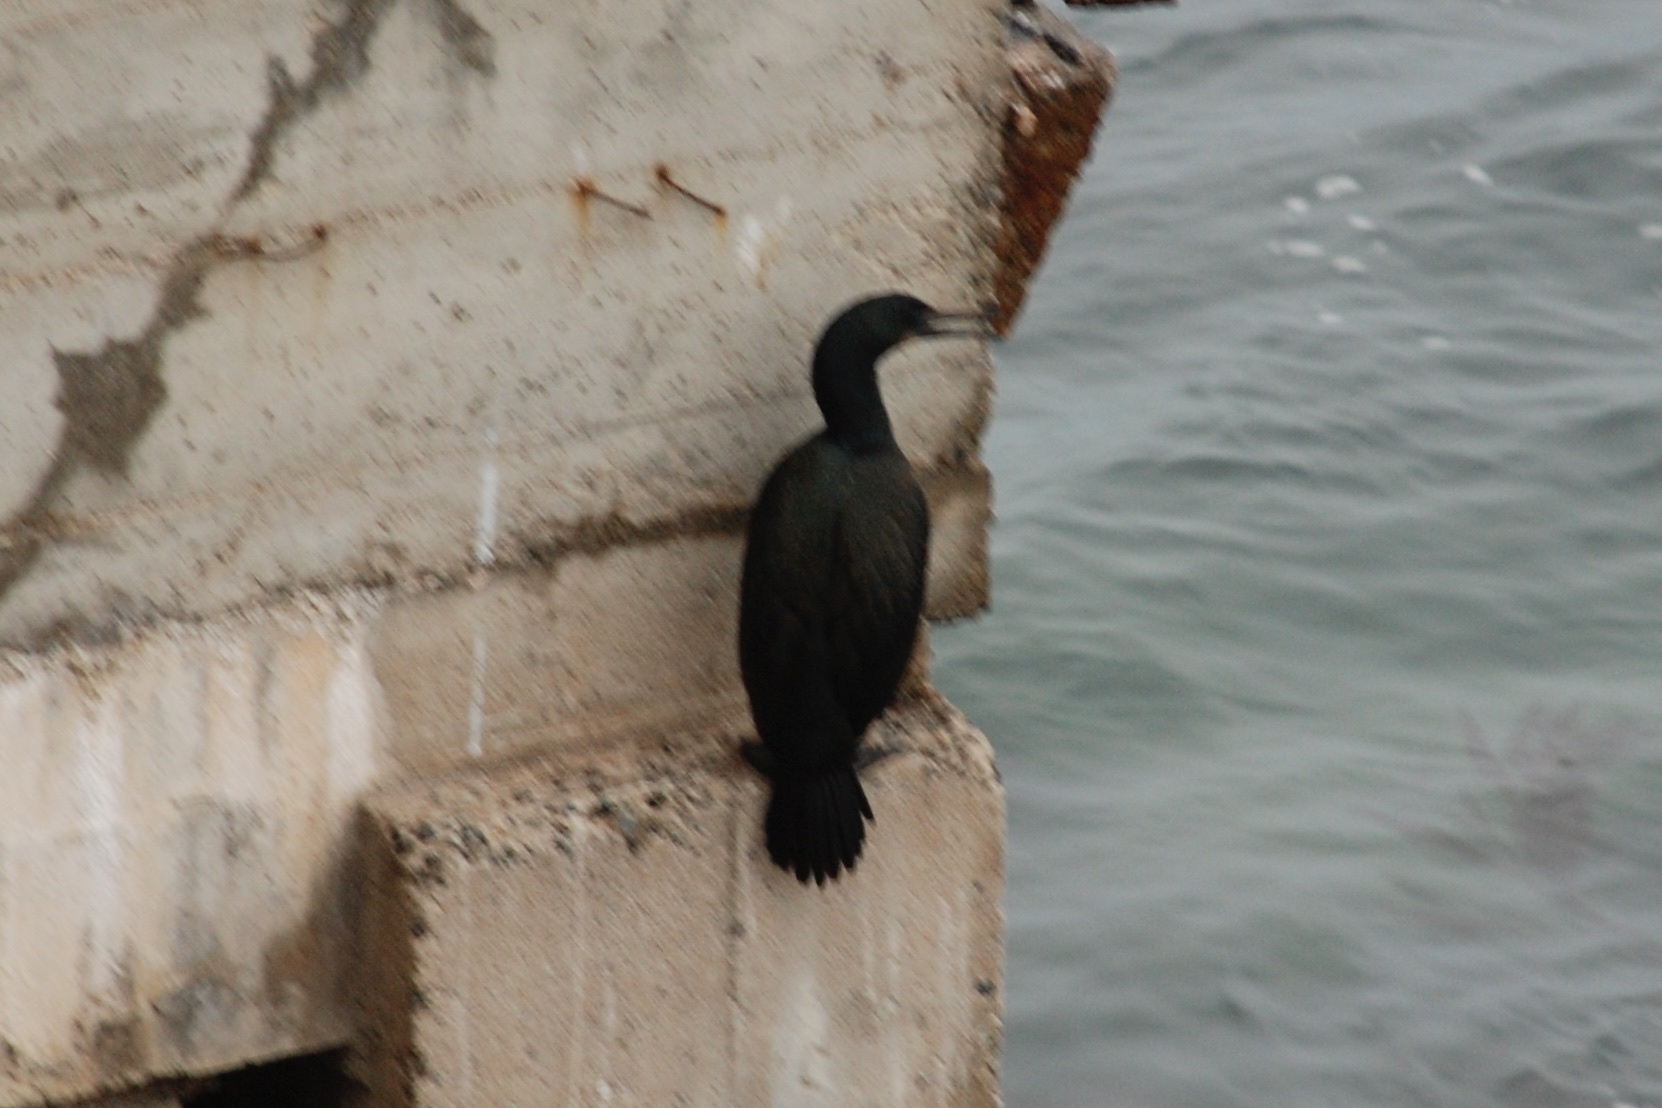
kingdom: Animalia
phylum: Chordata
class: Aves
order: Suliformes
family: Phalacrocoracidae
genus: Urile
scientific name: Urile penicillatus
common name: Brandt's cormorant
